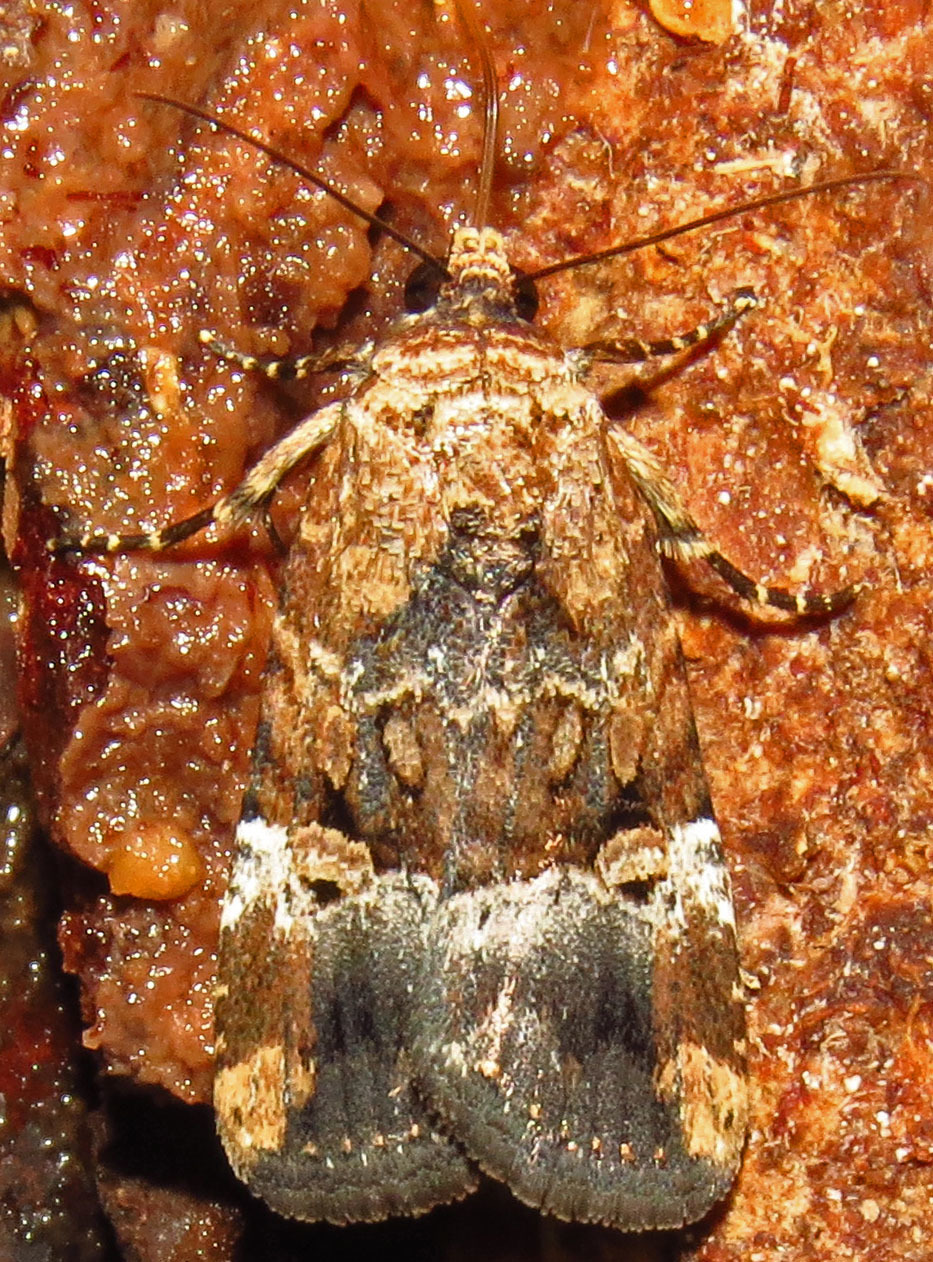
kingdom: Animalia
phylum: Arthropoda
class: Insecta
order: Lepidoptera
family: Noctuidae
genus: Elaphria
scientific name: Elaphria chalcedonia
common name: Chalcedony midget
